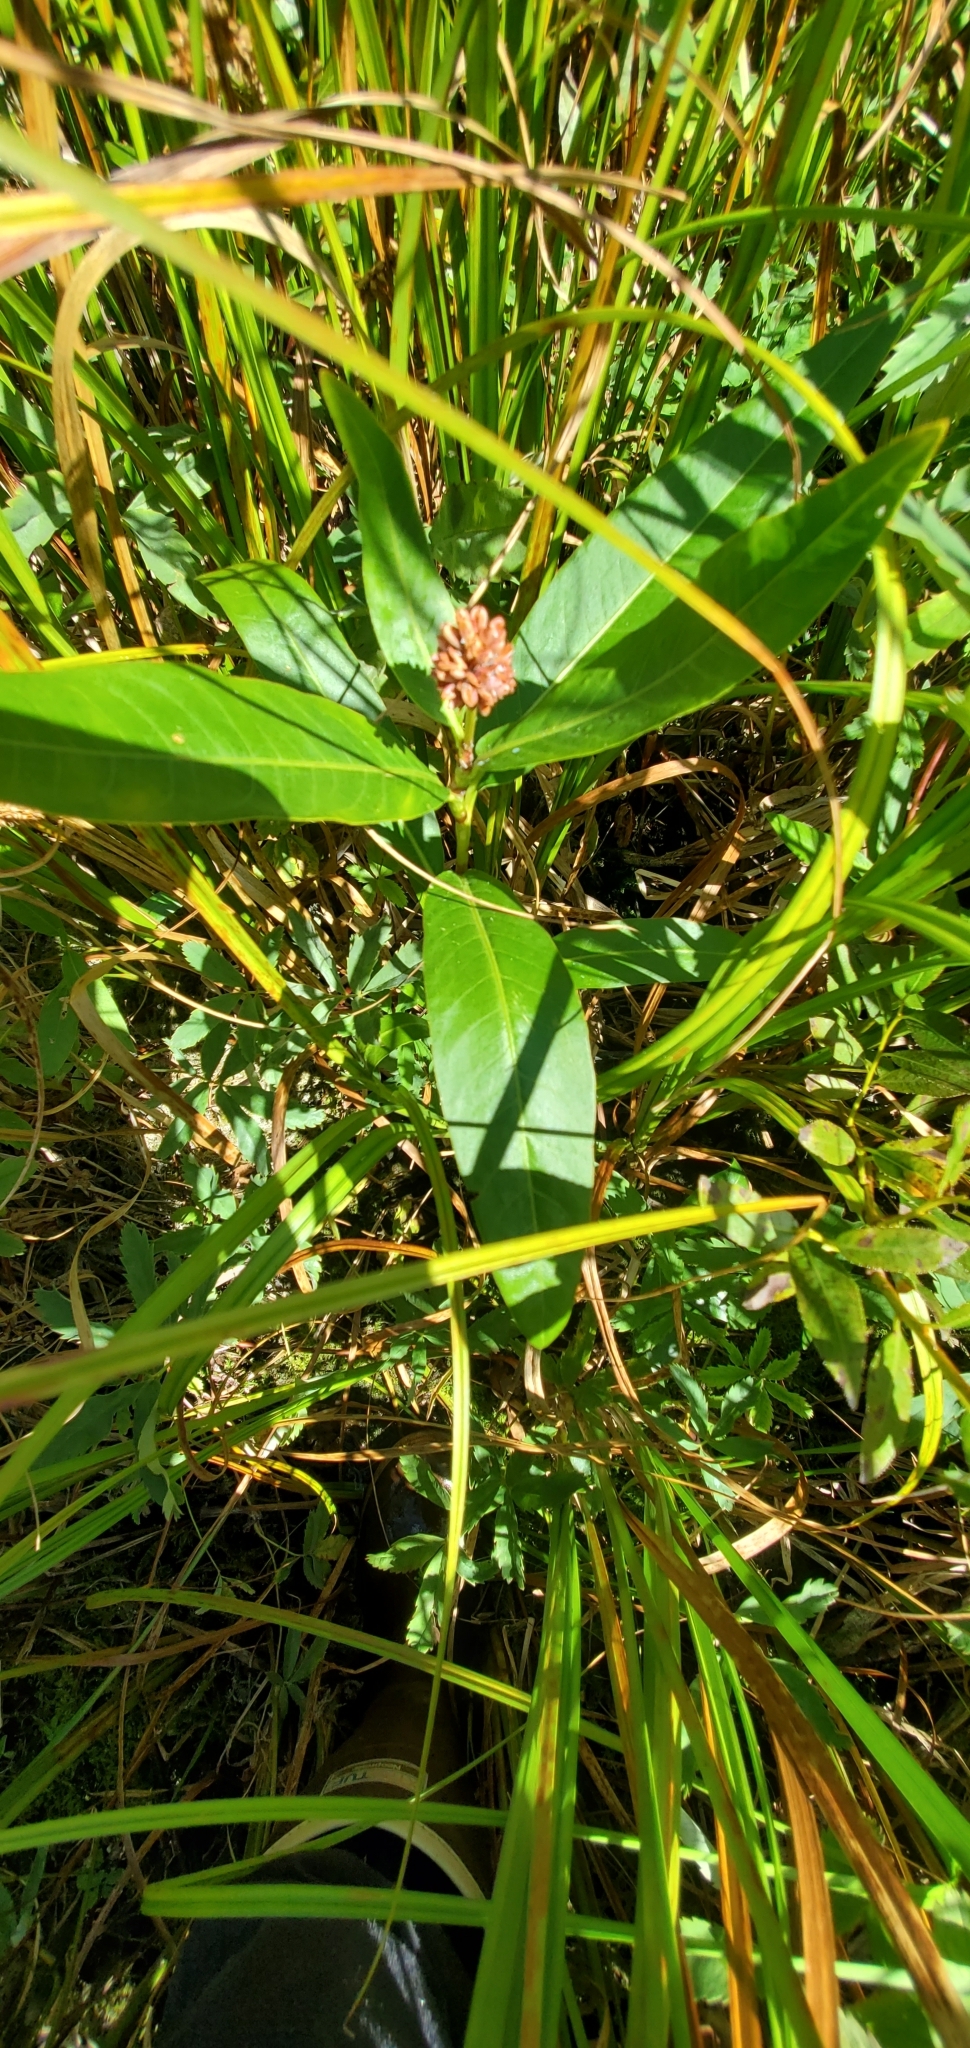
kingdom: Plantae
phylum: Tracheophyta
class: Magnoliopsida
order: Caryophyllales
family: Polygonaceae
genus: Persicaria
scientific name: Persicaria amphibia
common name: Amphibious bistort
